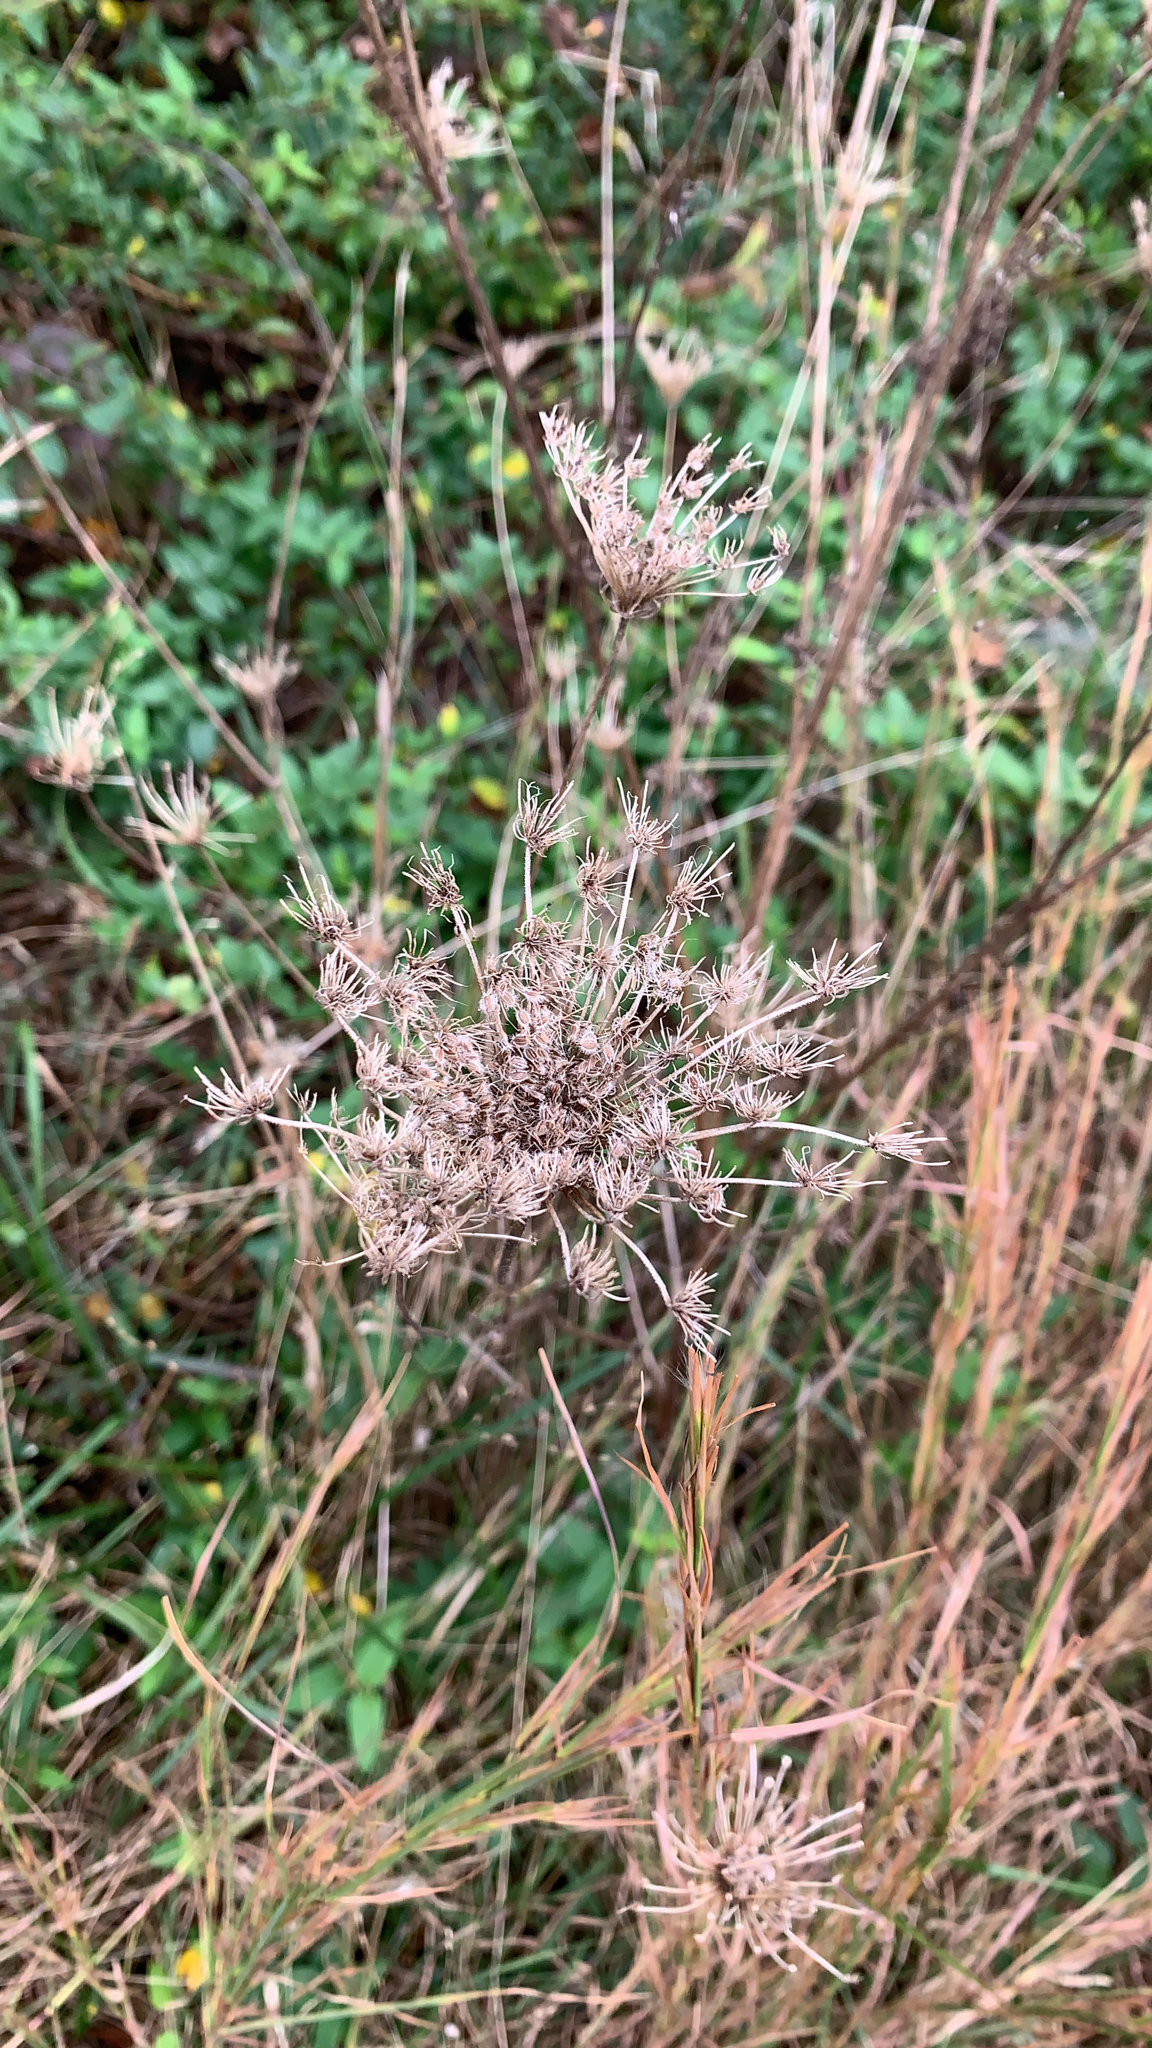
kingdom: Plantae
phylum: Tracheophyta
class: Magnoliopsida
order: Apiales
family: Apiaceae
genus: Daucus
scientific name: Daucus carota
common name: Wild carrot
